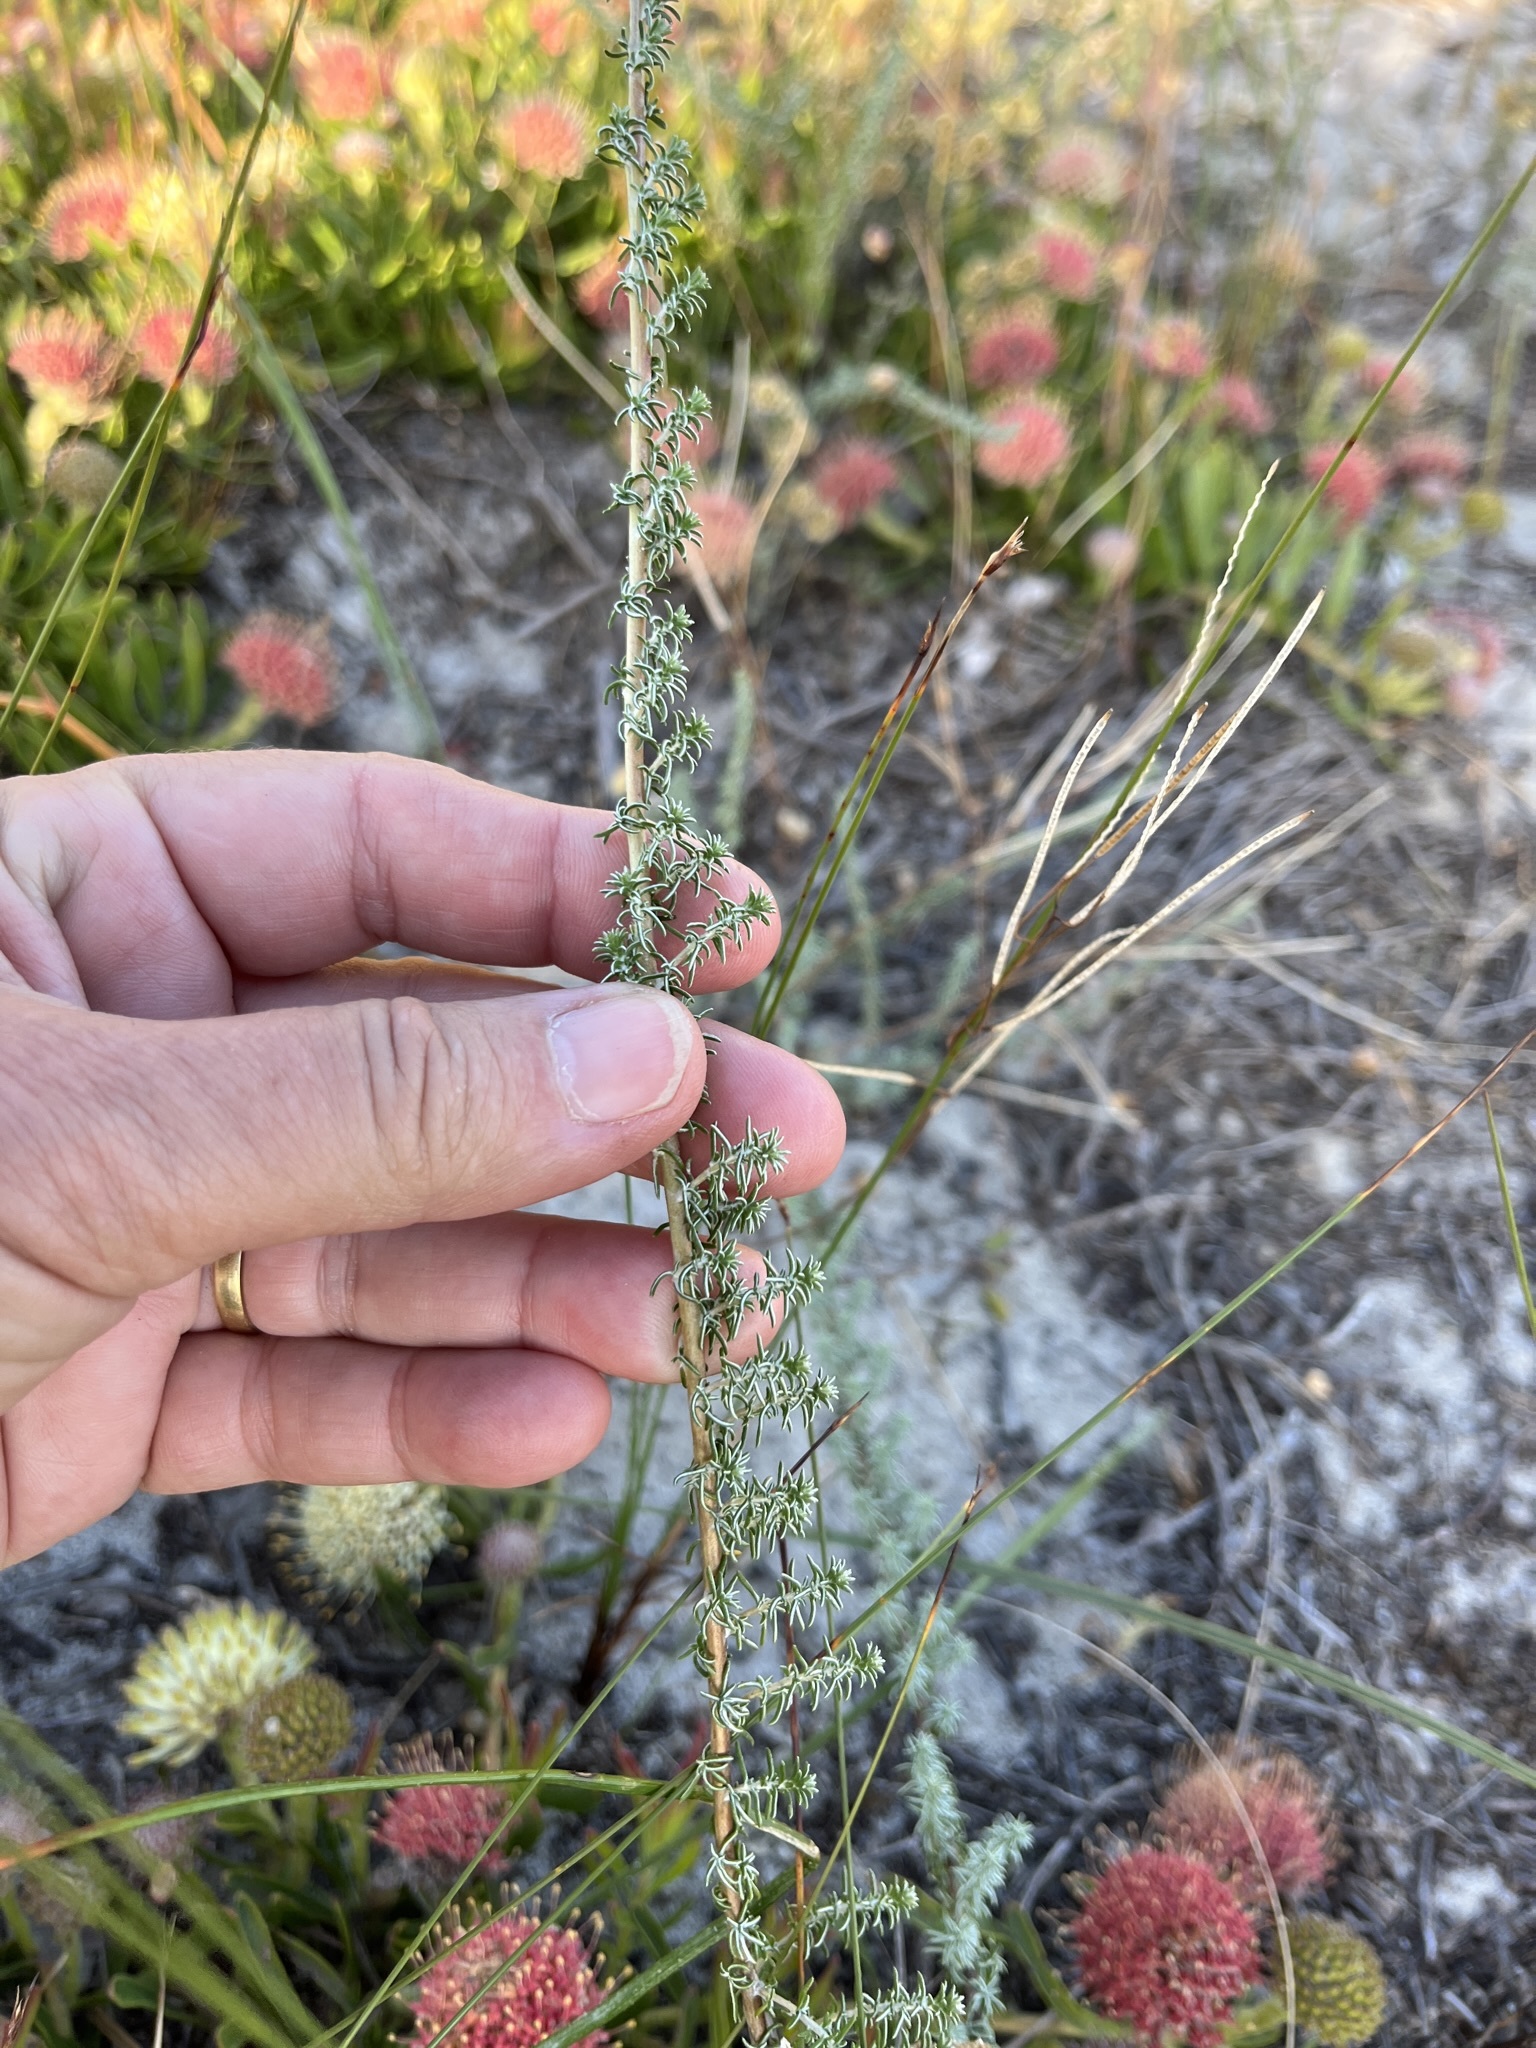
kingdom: Plantae
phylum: Tracheophyta
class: Magnoliopsida
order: Asterales
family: Asteraceae
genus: Ifloga
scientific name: Ifloga repens
